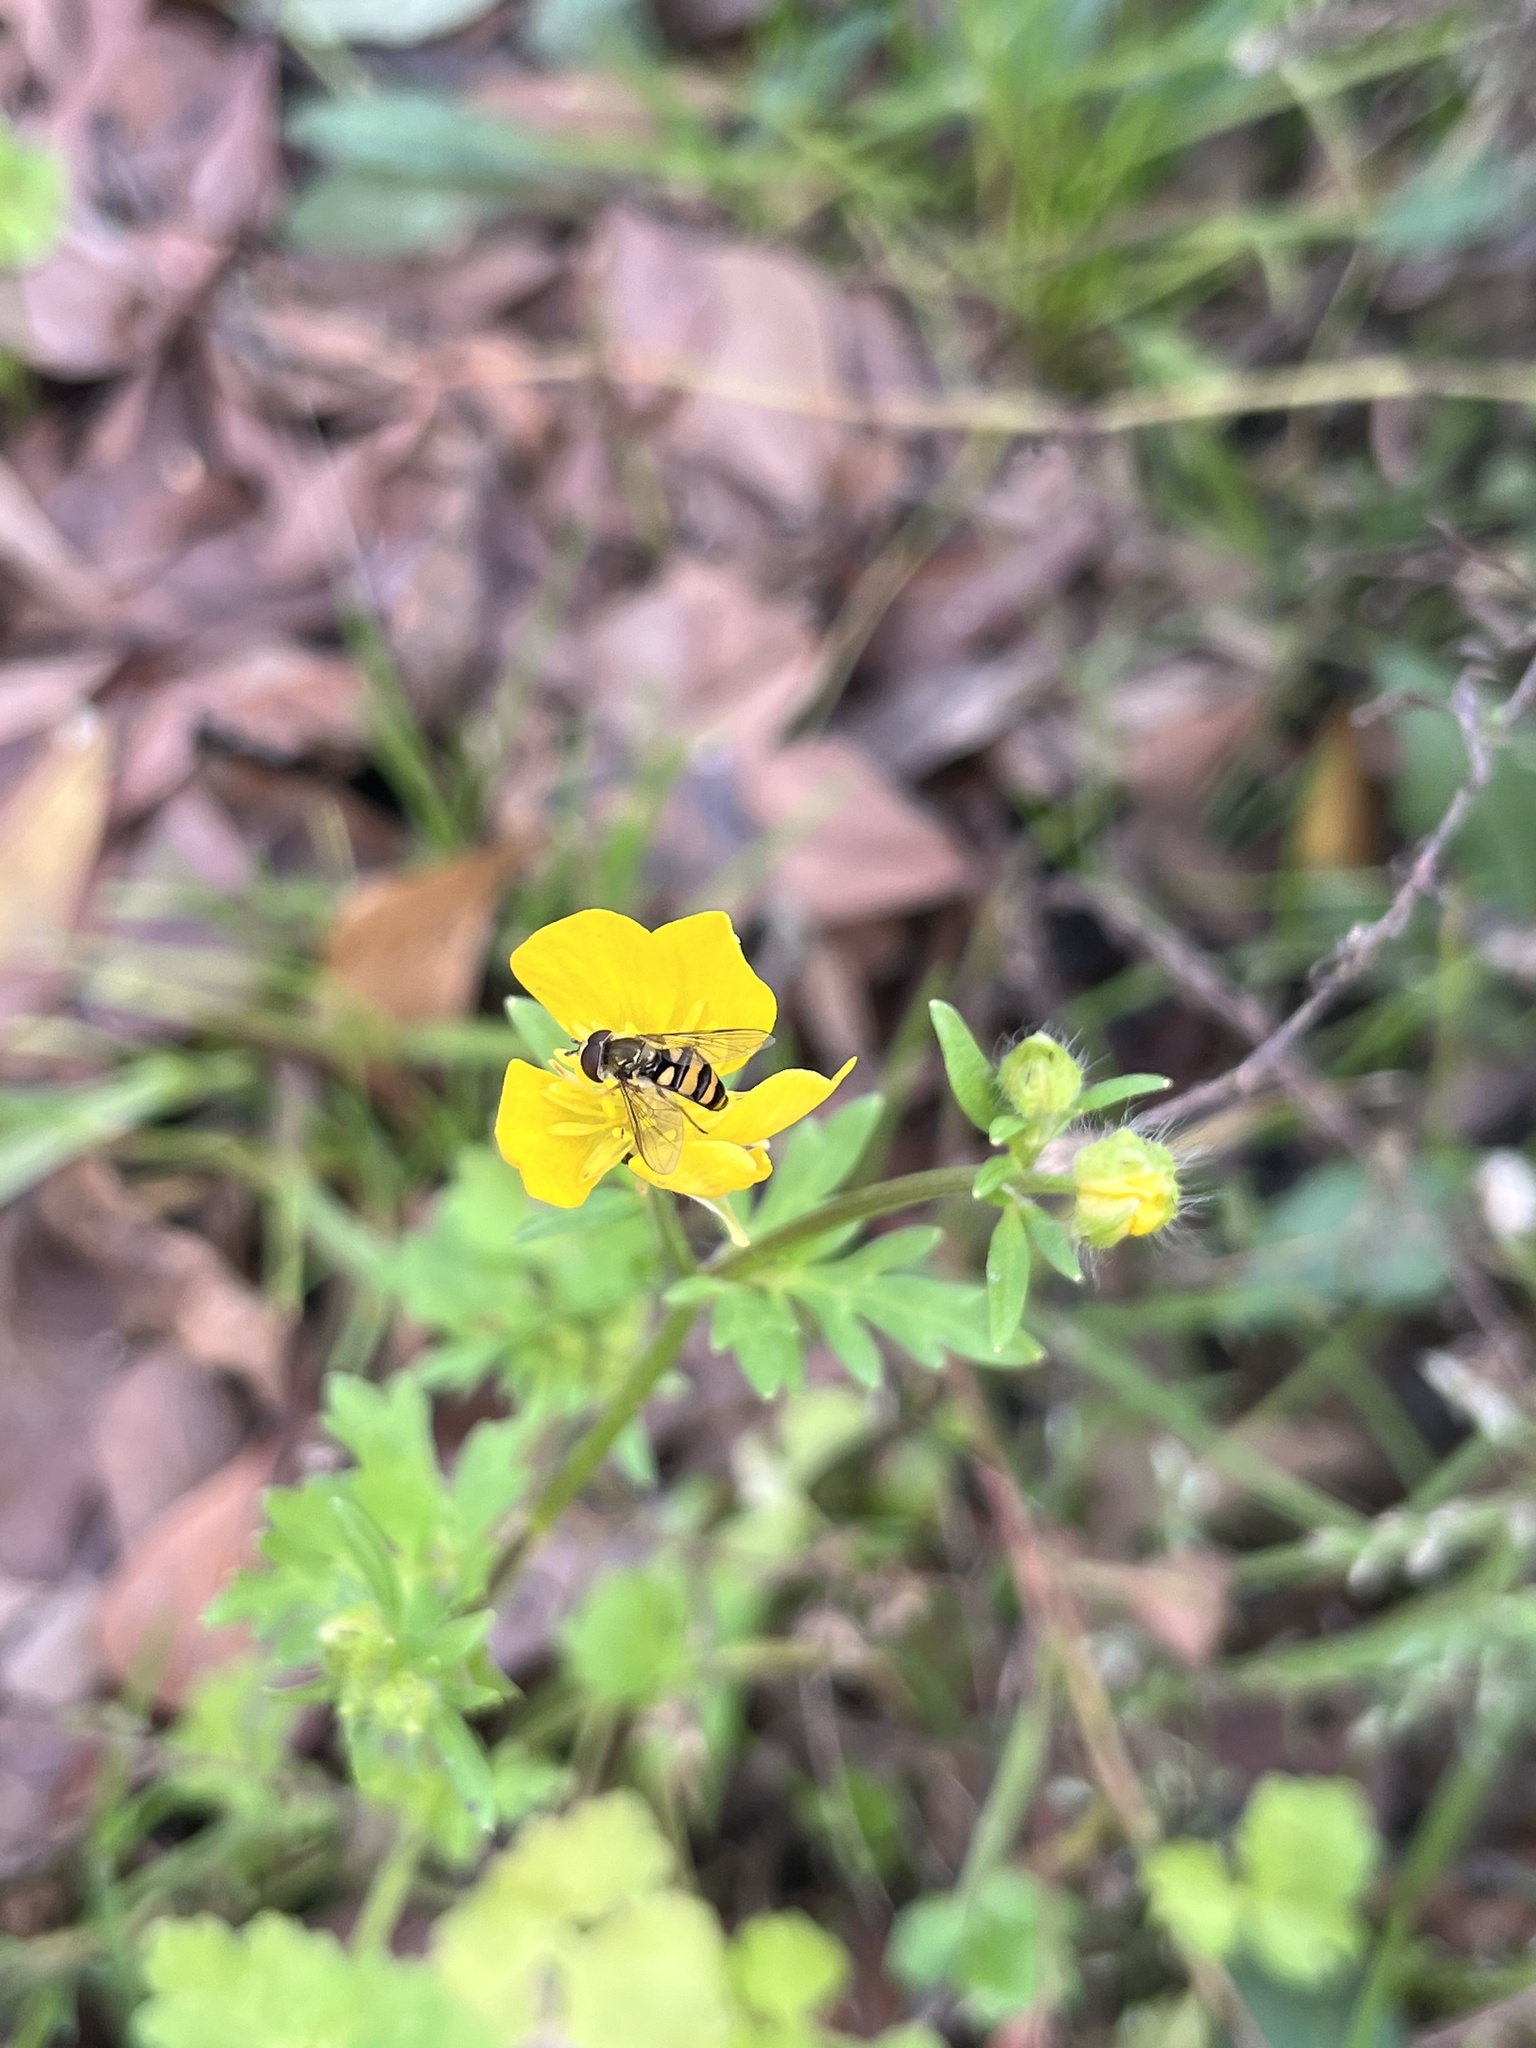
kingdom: Animalia
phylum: Arthropoda
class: Insecta
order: Diptera
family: Syrphidae
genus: Eupeodes
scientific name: Eupeodes
